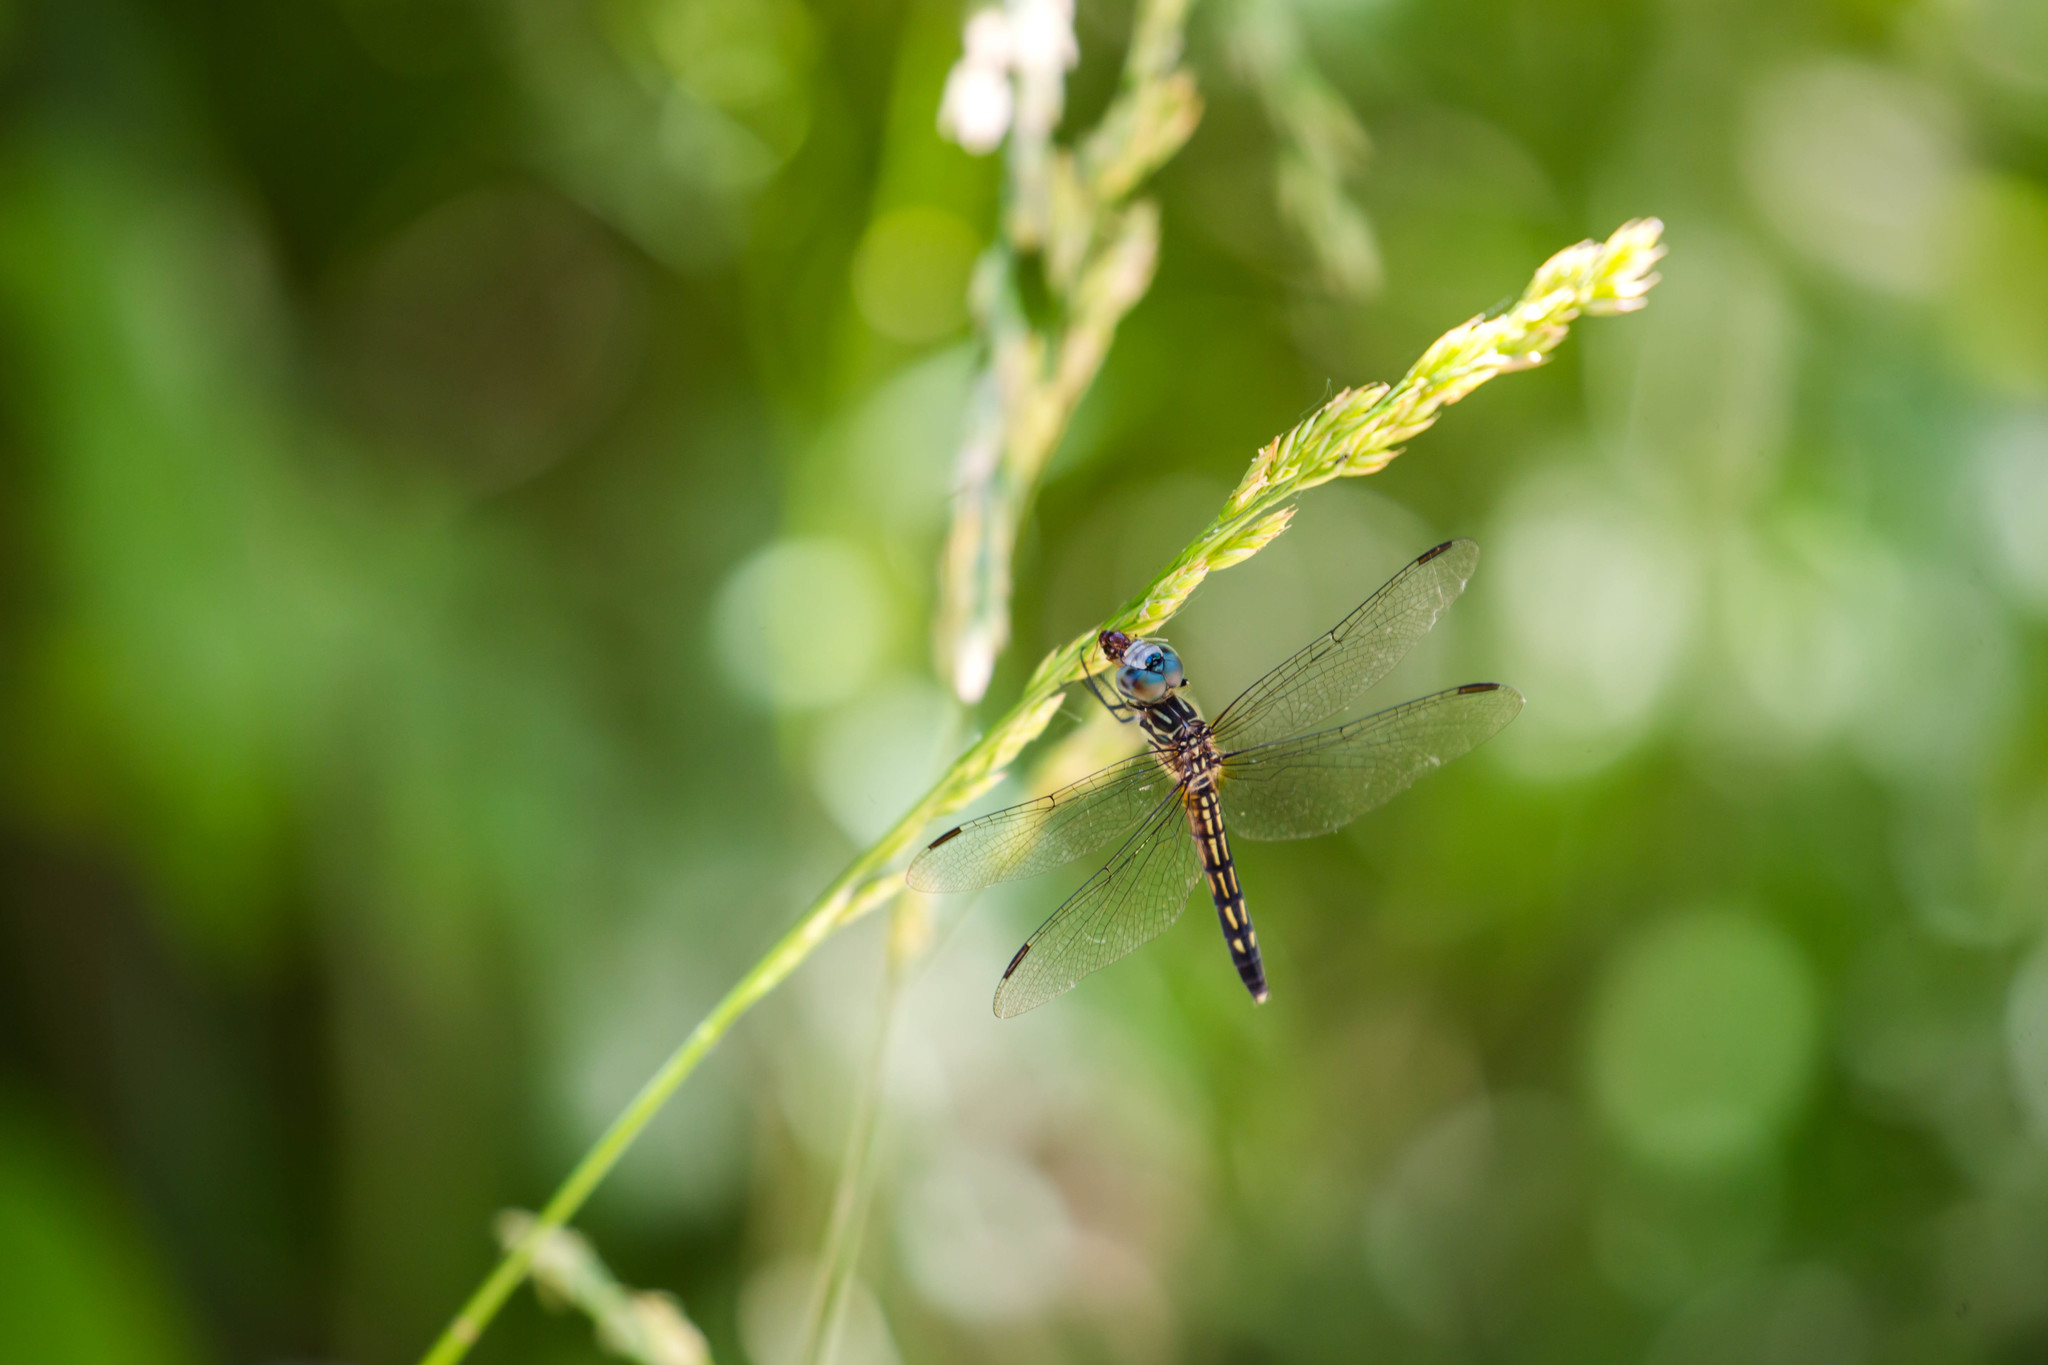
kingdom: Animalia
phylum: Arthropoda
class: Insecta
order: Odonata
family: Libellulidae
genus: Pachydiplax
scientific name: Pachydiplax longipennis
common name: Blue dasher
